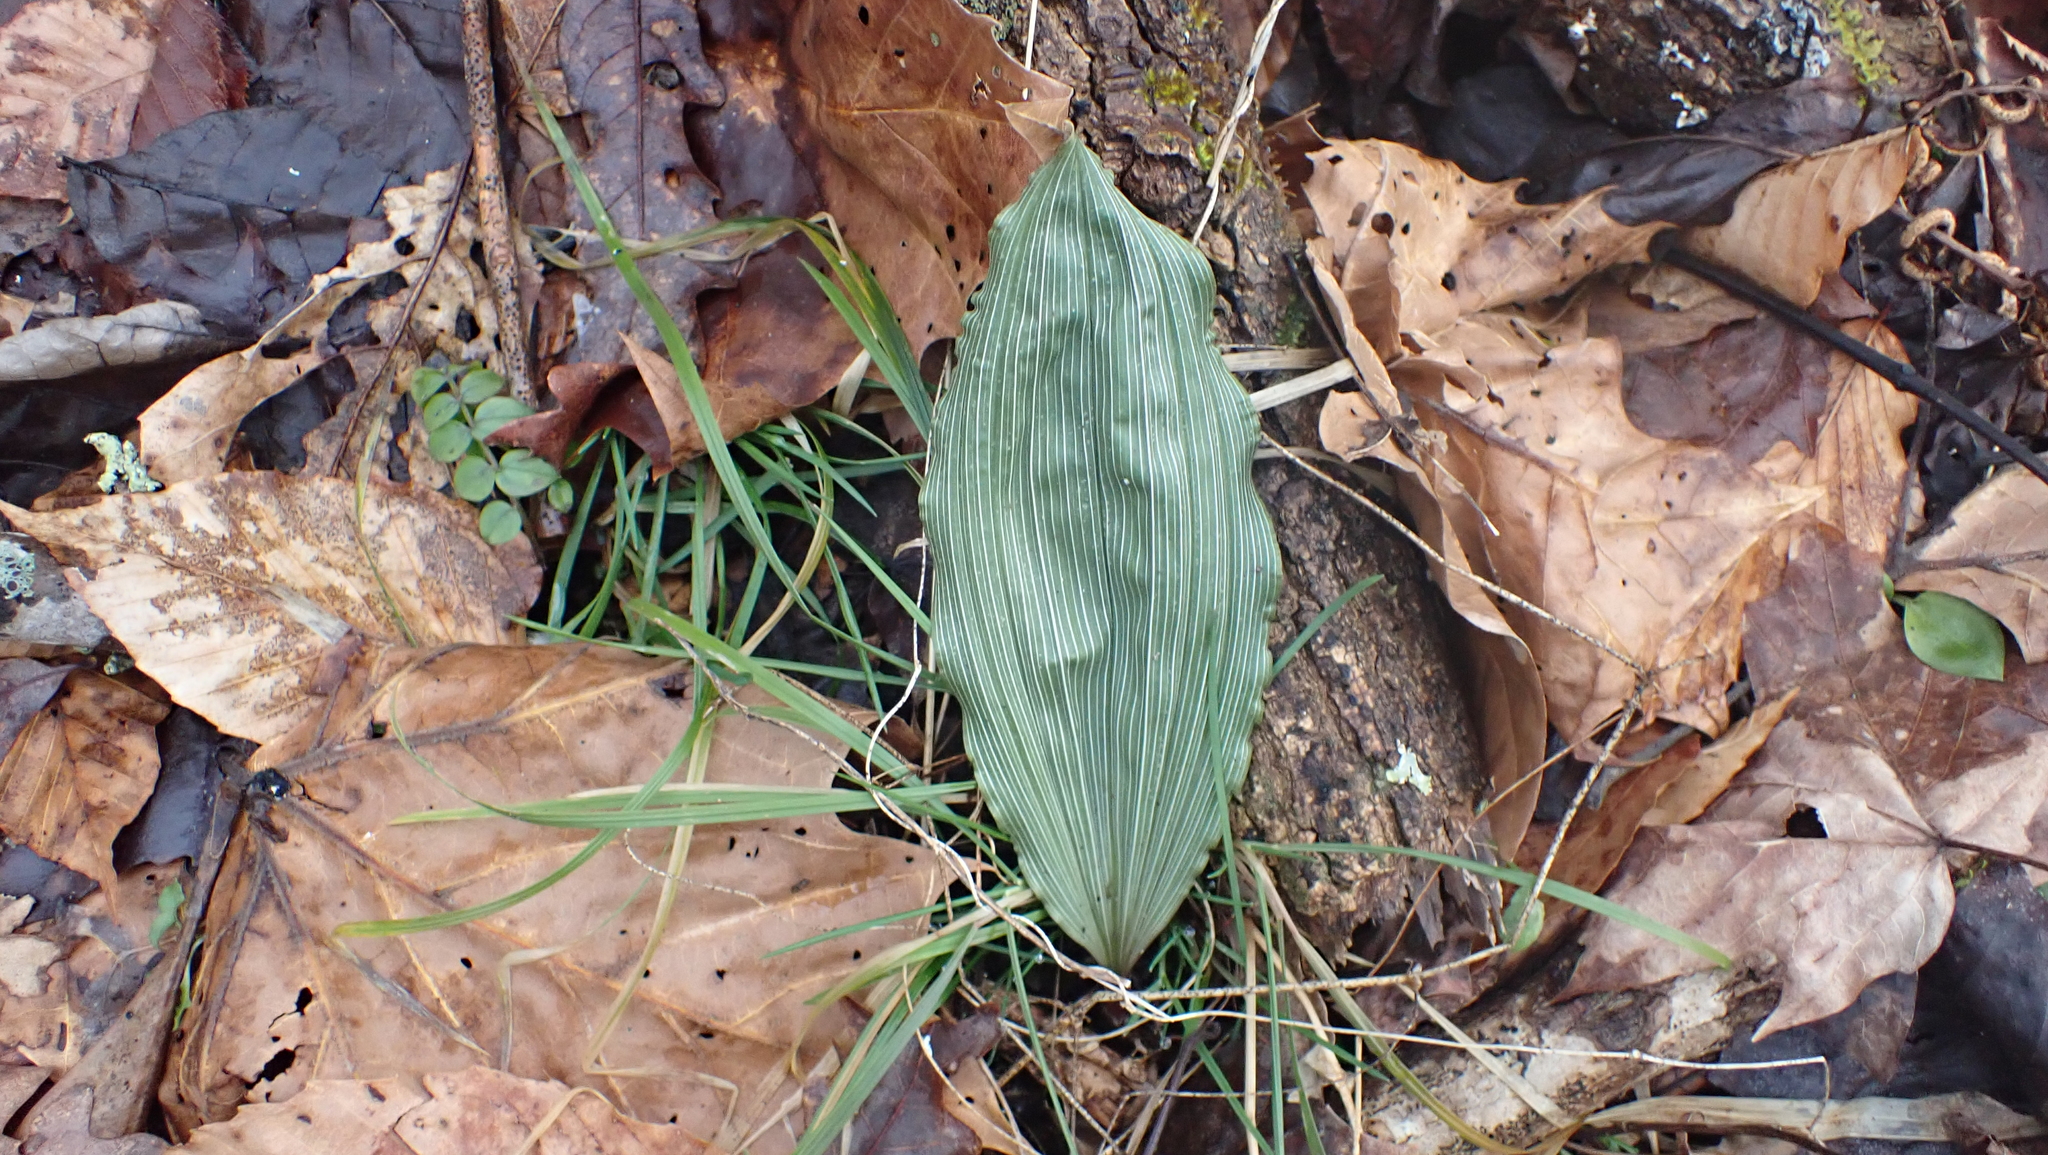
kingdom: Plantae
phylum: Tracheophyta
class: Liliopsida
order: Asparagales
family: Orchidaceae
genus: Aplectrum
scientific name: Aplectrum hyemale
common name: Adam-and-eve
